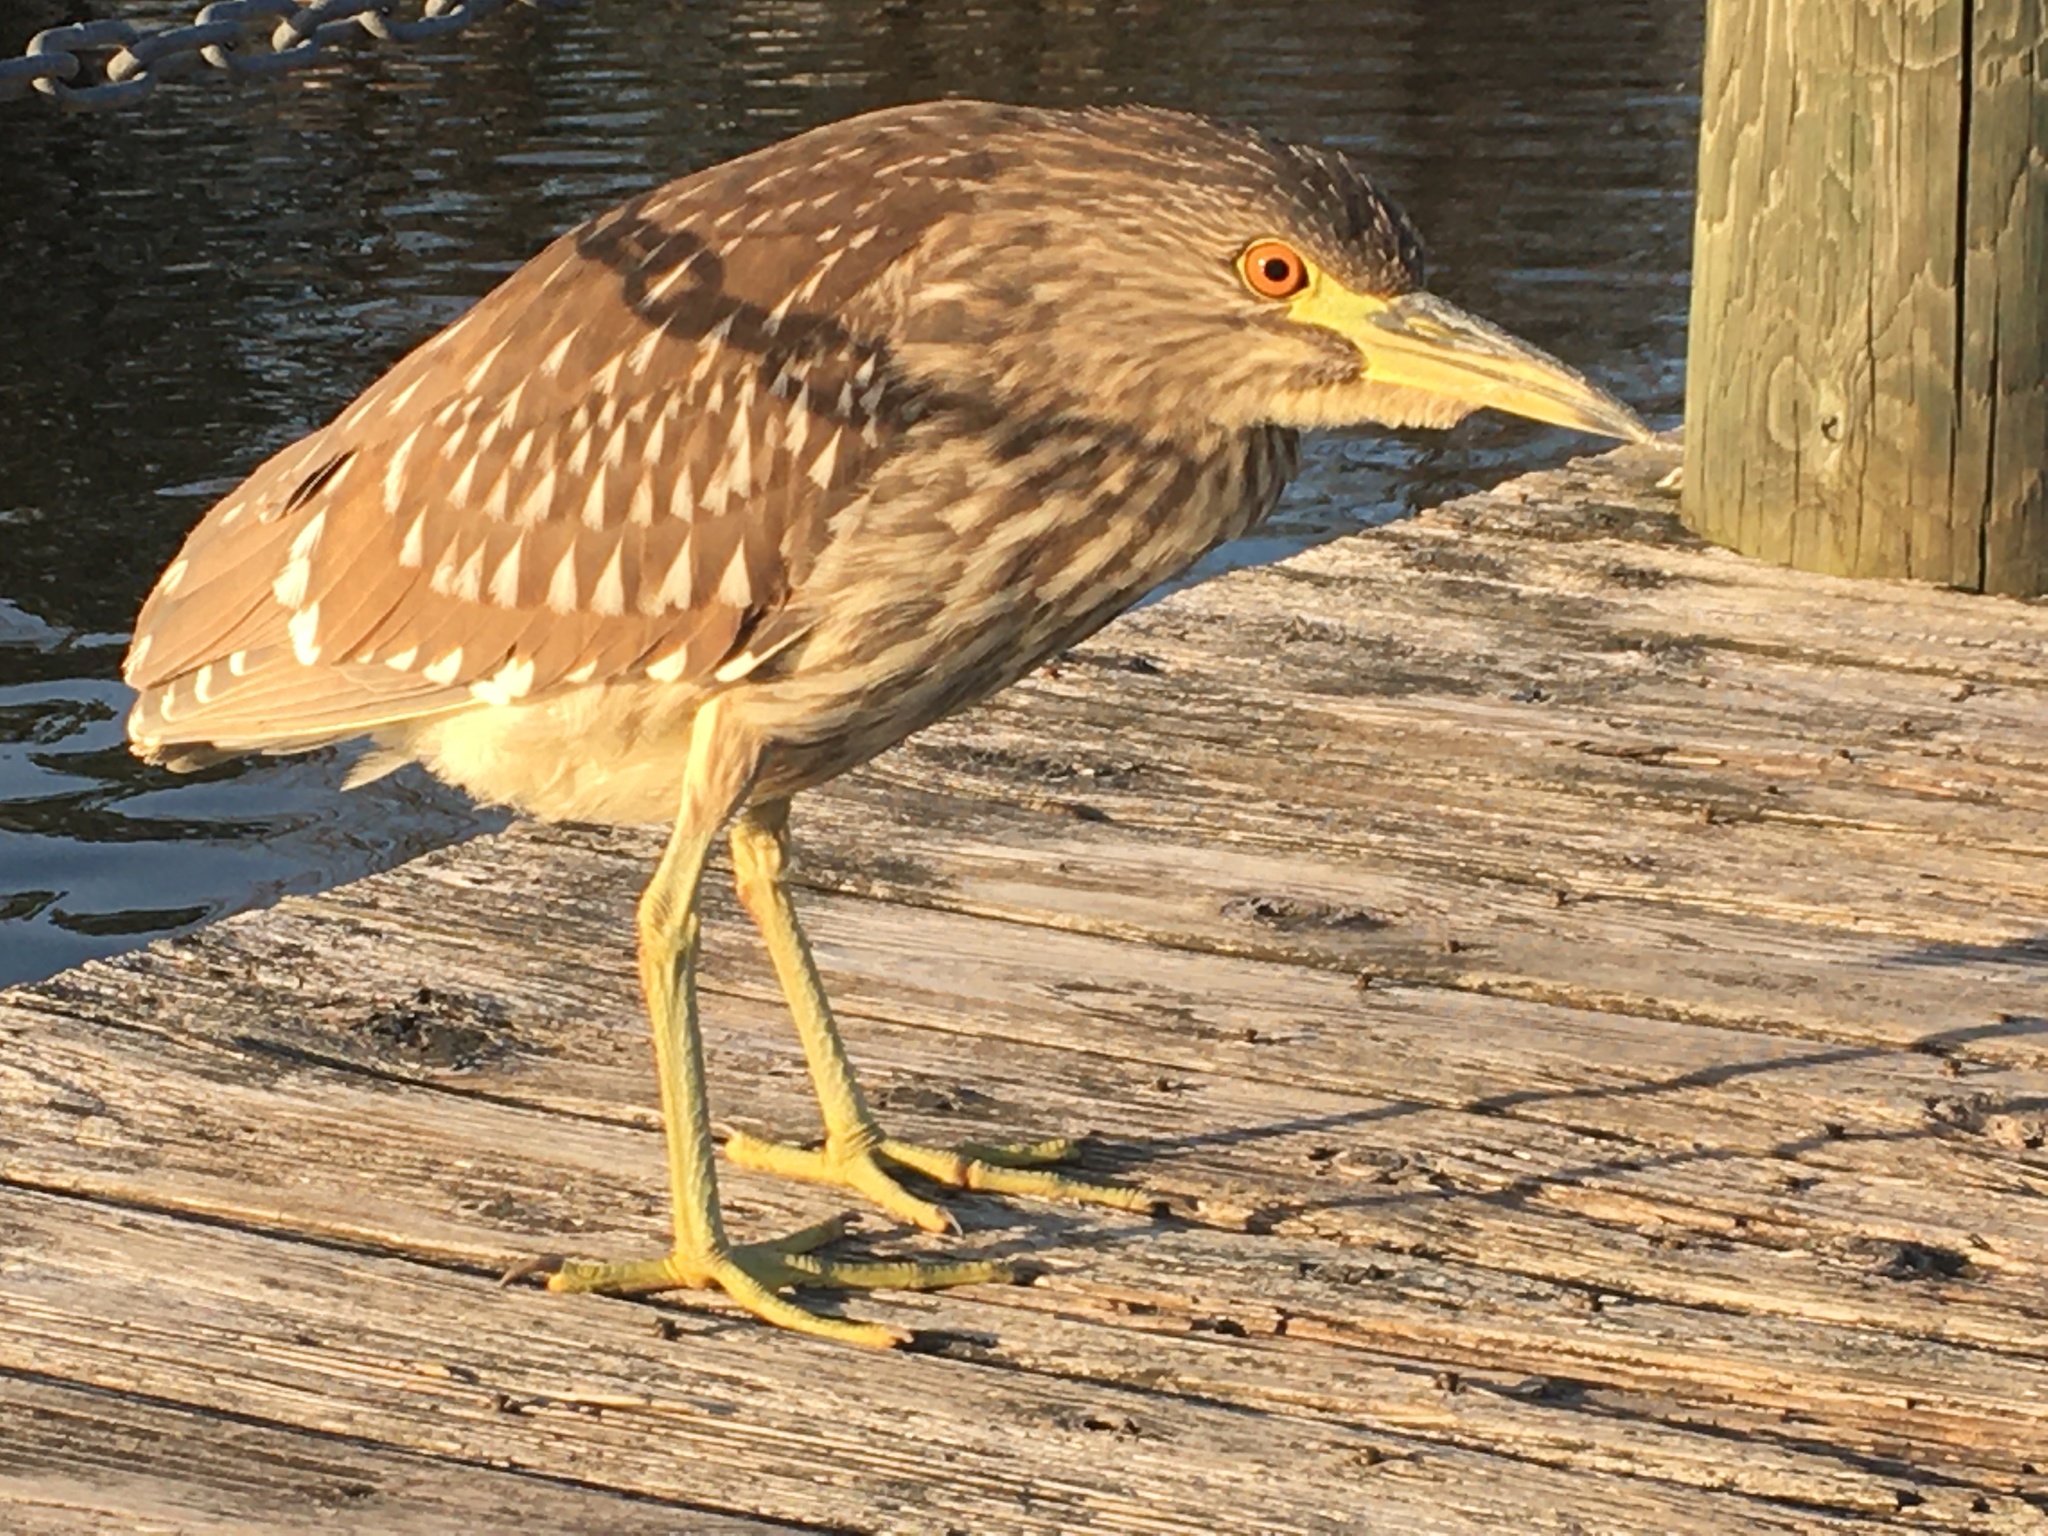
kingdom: Animalia
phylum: Chordata
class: Aves
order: Pelecaniformes
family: Ardeidae
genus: Nycticorax
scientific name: Nycticorax nycticorax
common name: Black-crowned night heron
